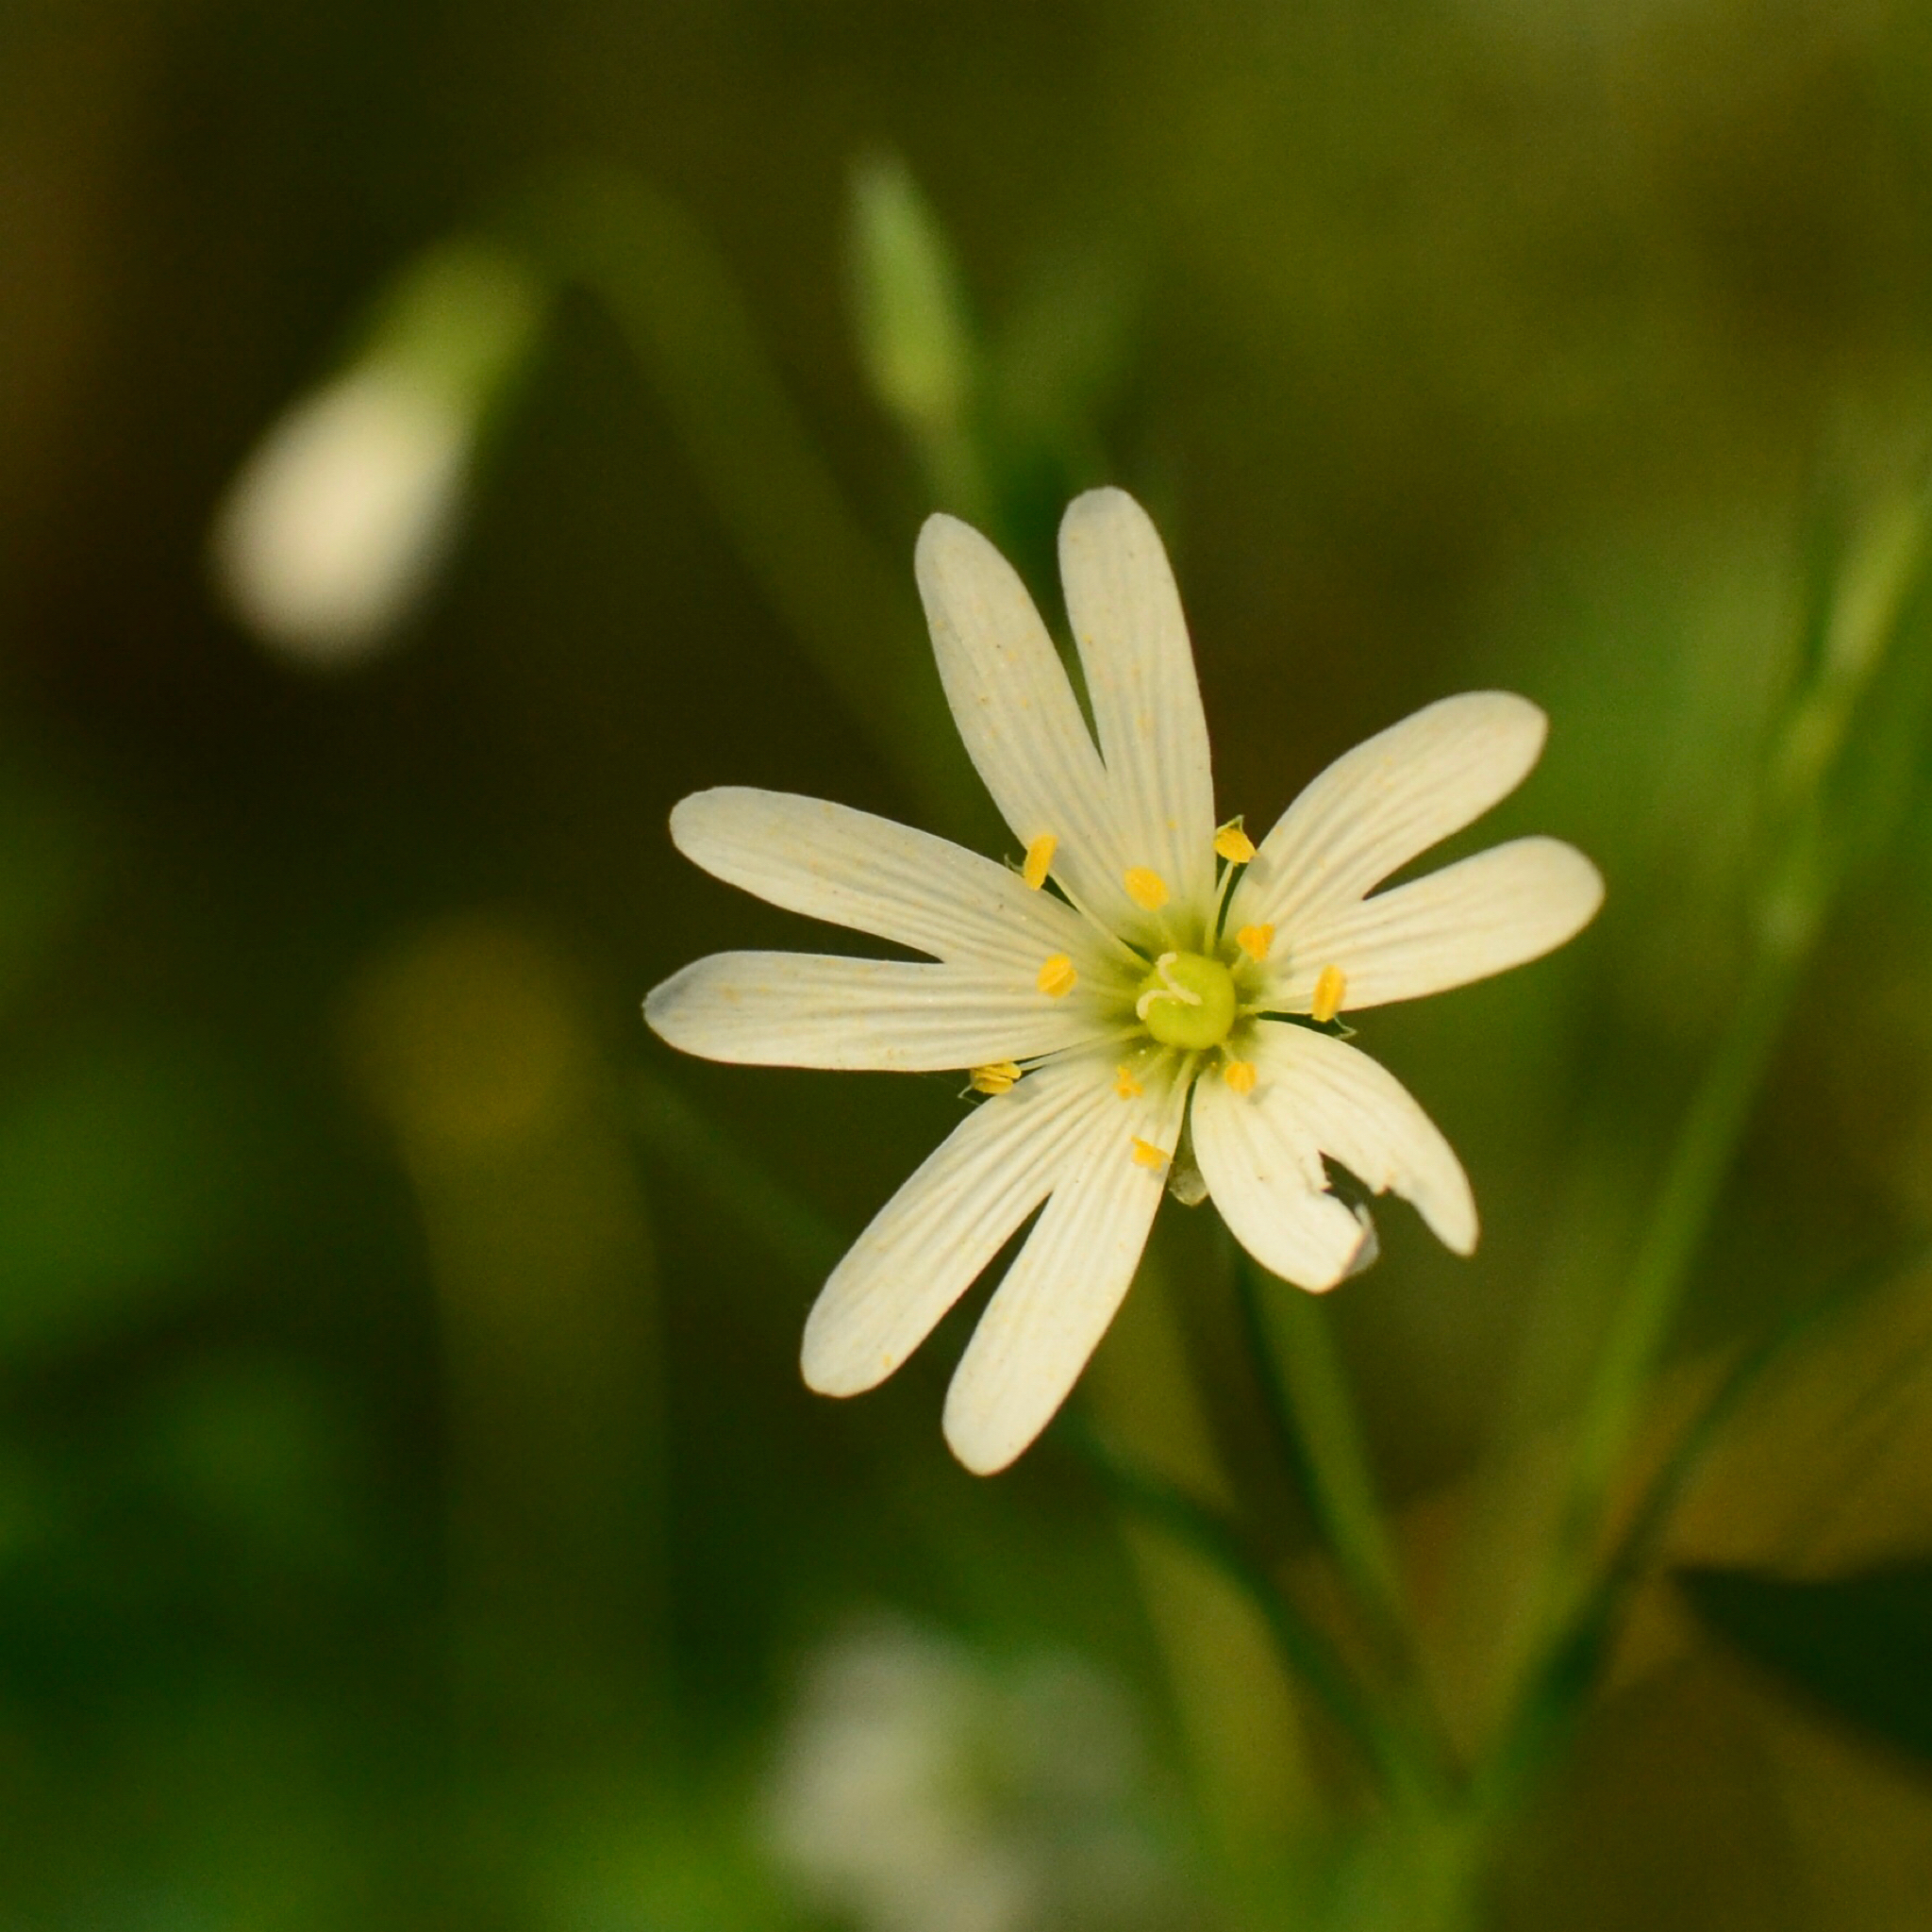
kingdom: Plantae
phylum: Tracheophyta
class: Magnoliopsida
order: Caryophyllales
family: Caryophyllaceae
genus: Rabelera
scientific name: Rabelera holostea
